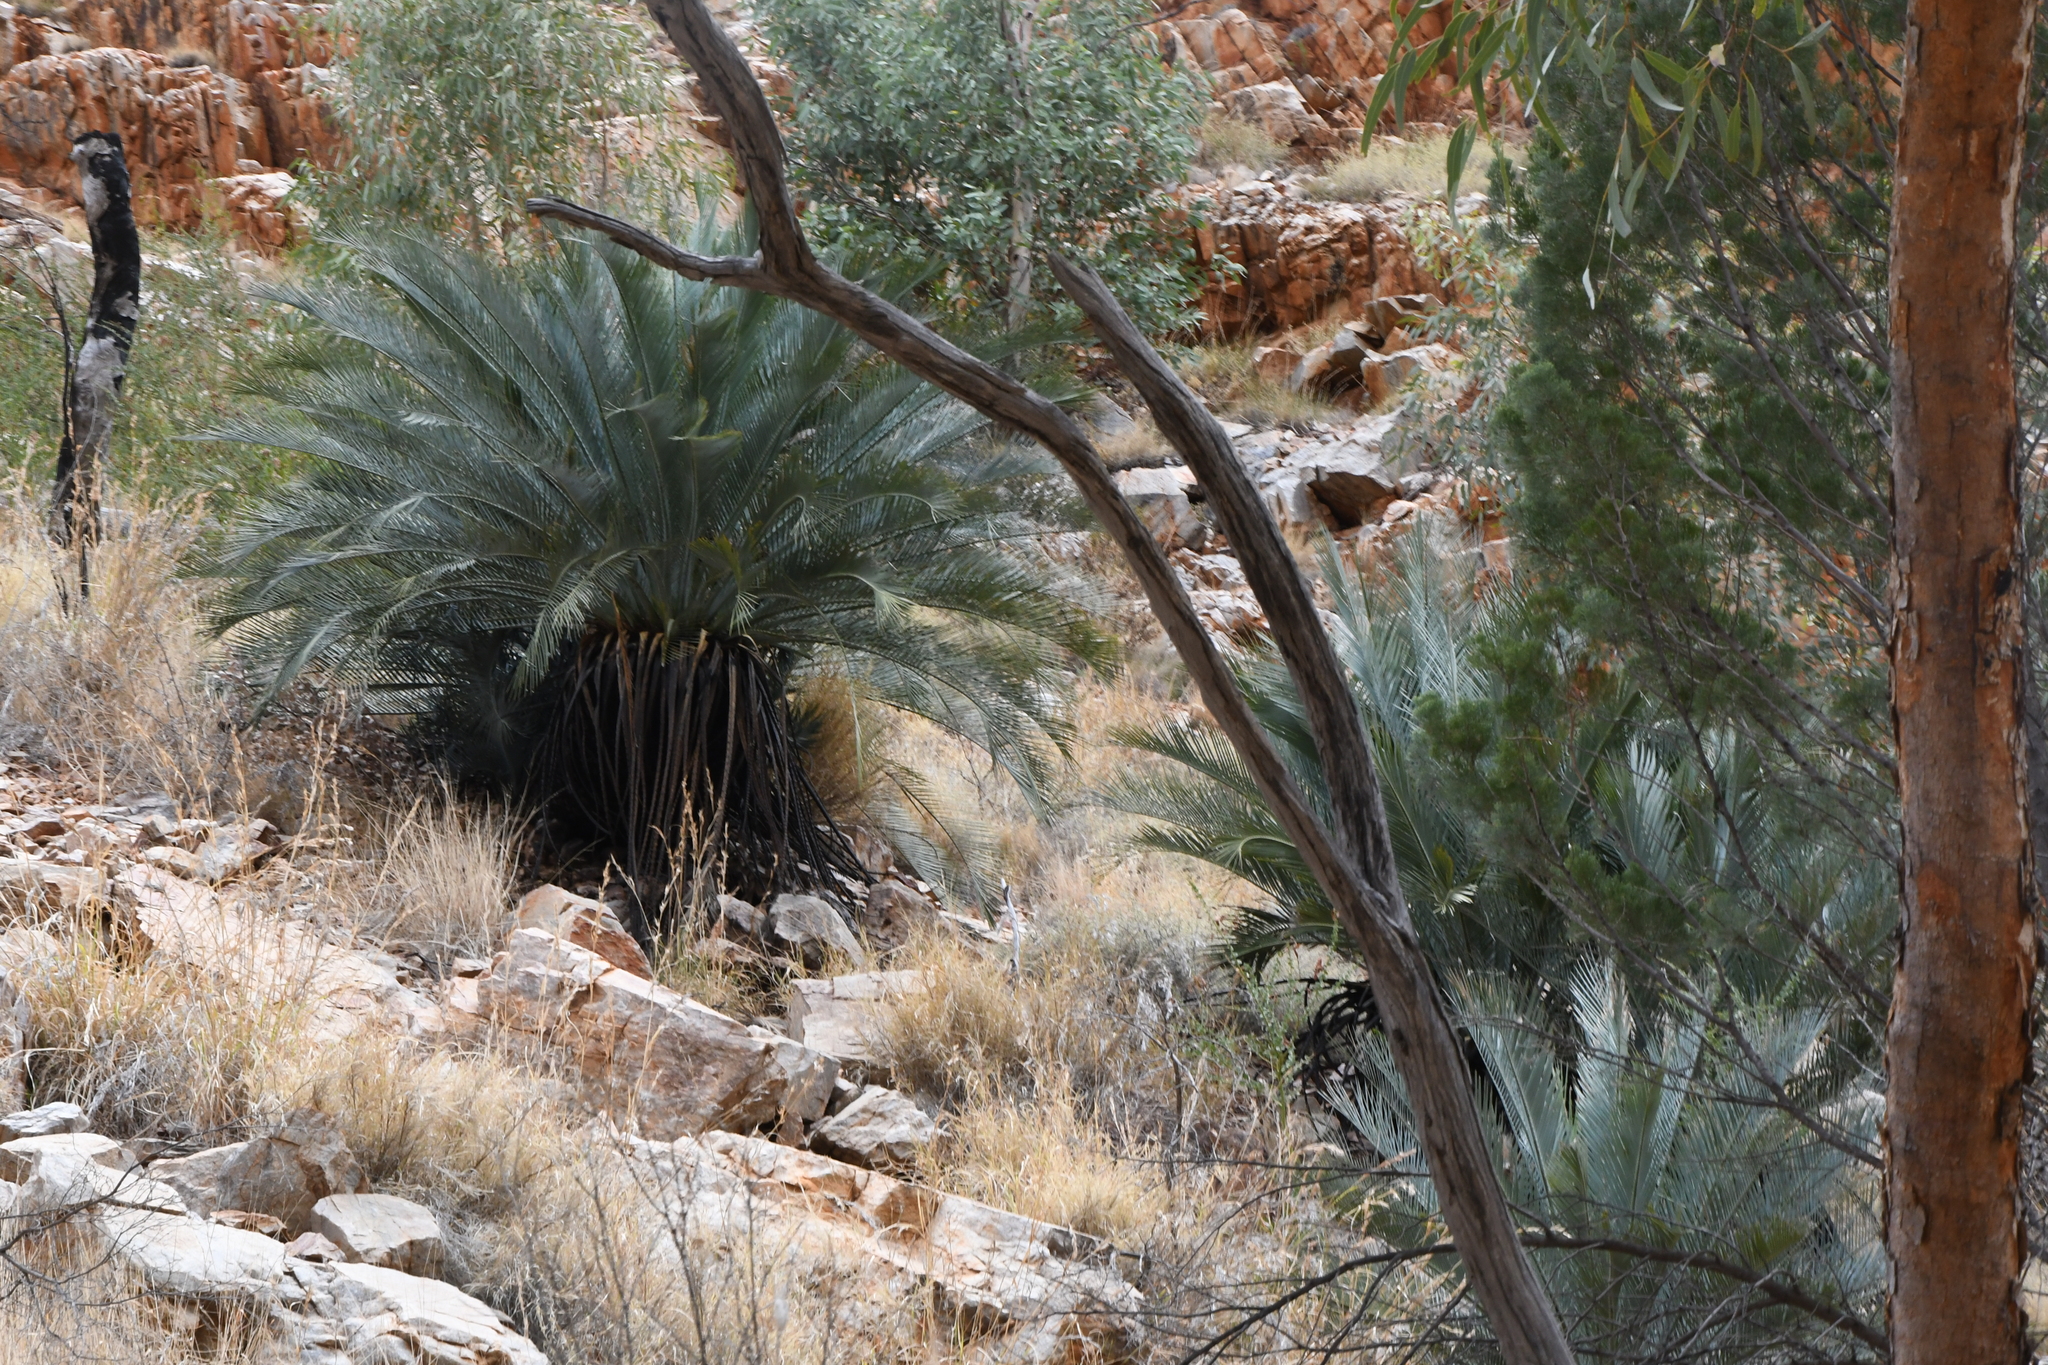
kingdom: Plantae
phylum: Tracheophyta
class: Cycadopsida
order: Cycadales
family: Zamiaceae
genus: Macrozamia
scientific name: Macrozamia macdonnellii
